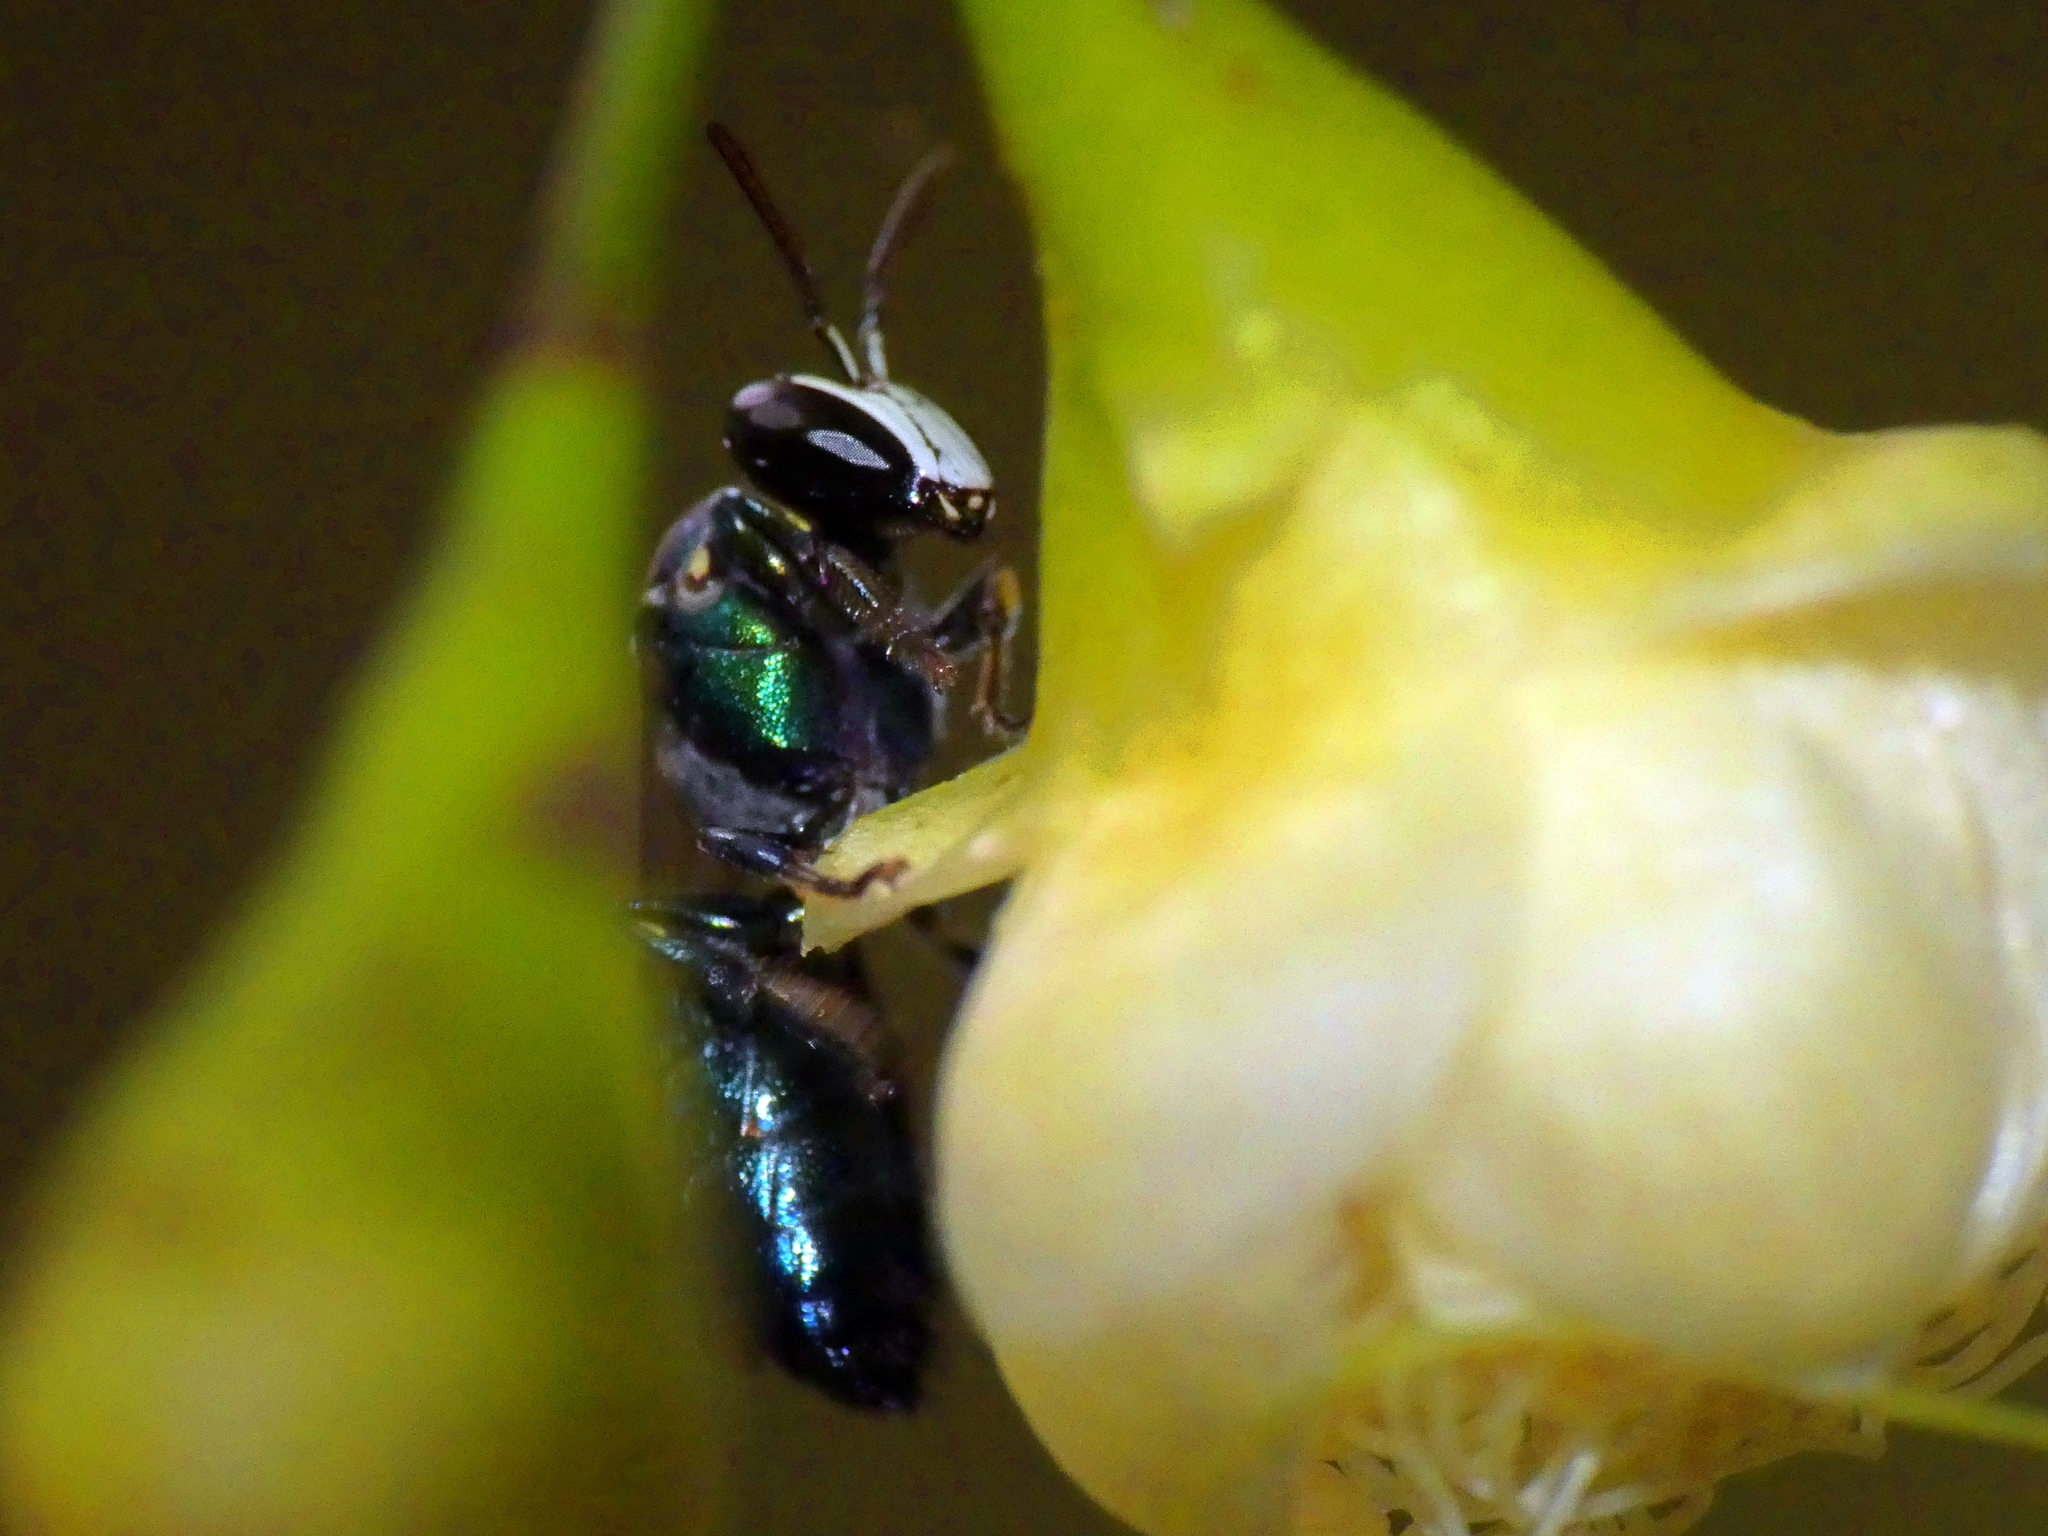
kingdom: Animalia
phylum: Arthropoda
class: Insecta
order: Hymenoptera
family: Colletidae
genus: Palaeorhiza
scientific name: Palaeorhiza turneriana
